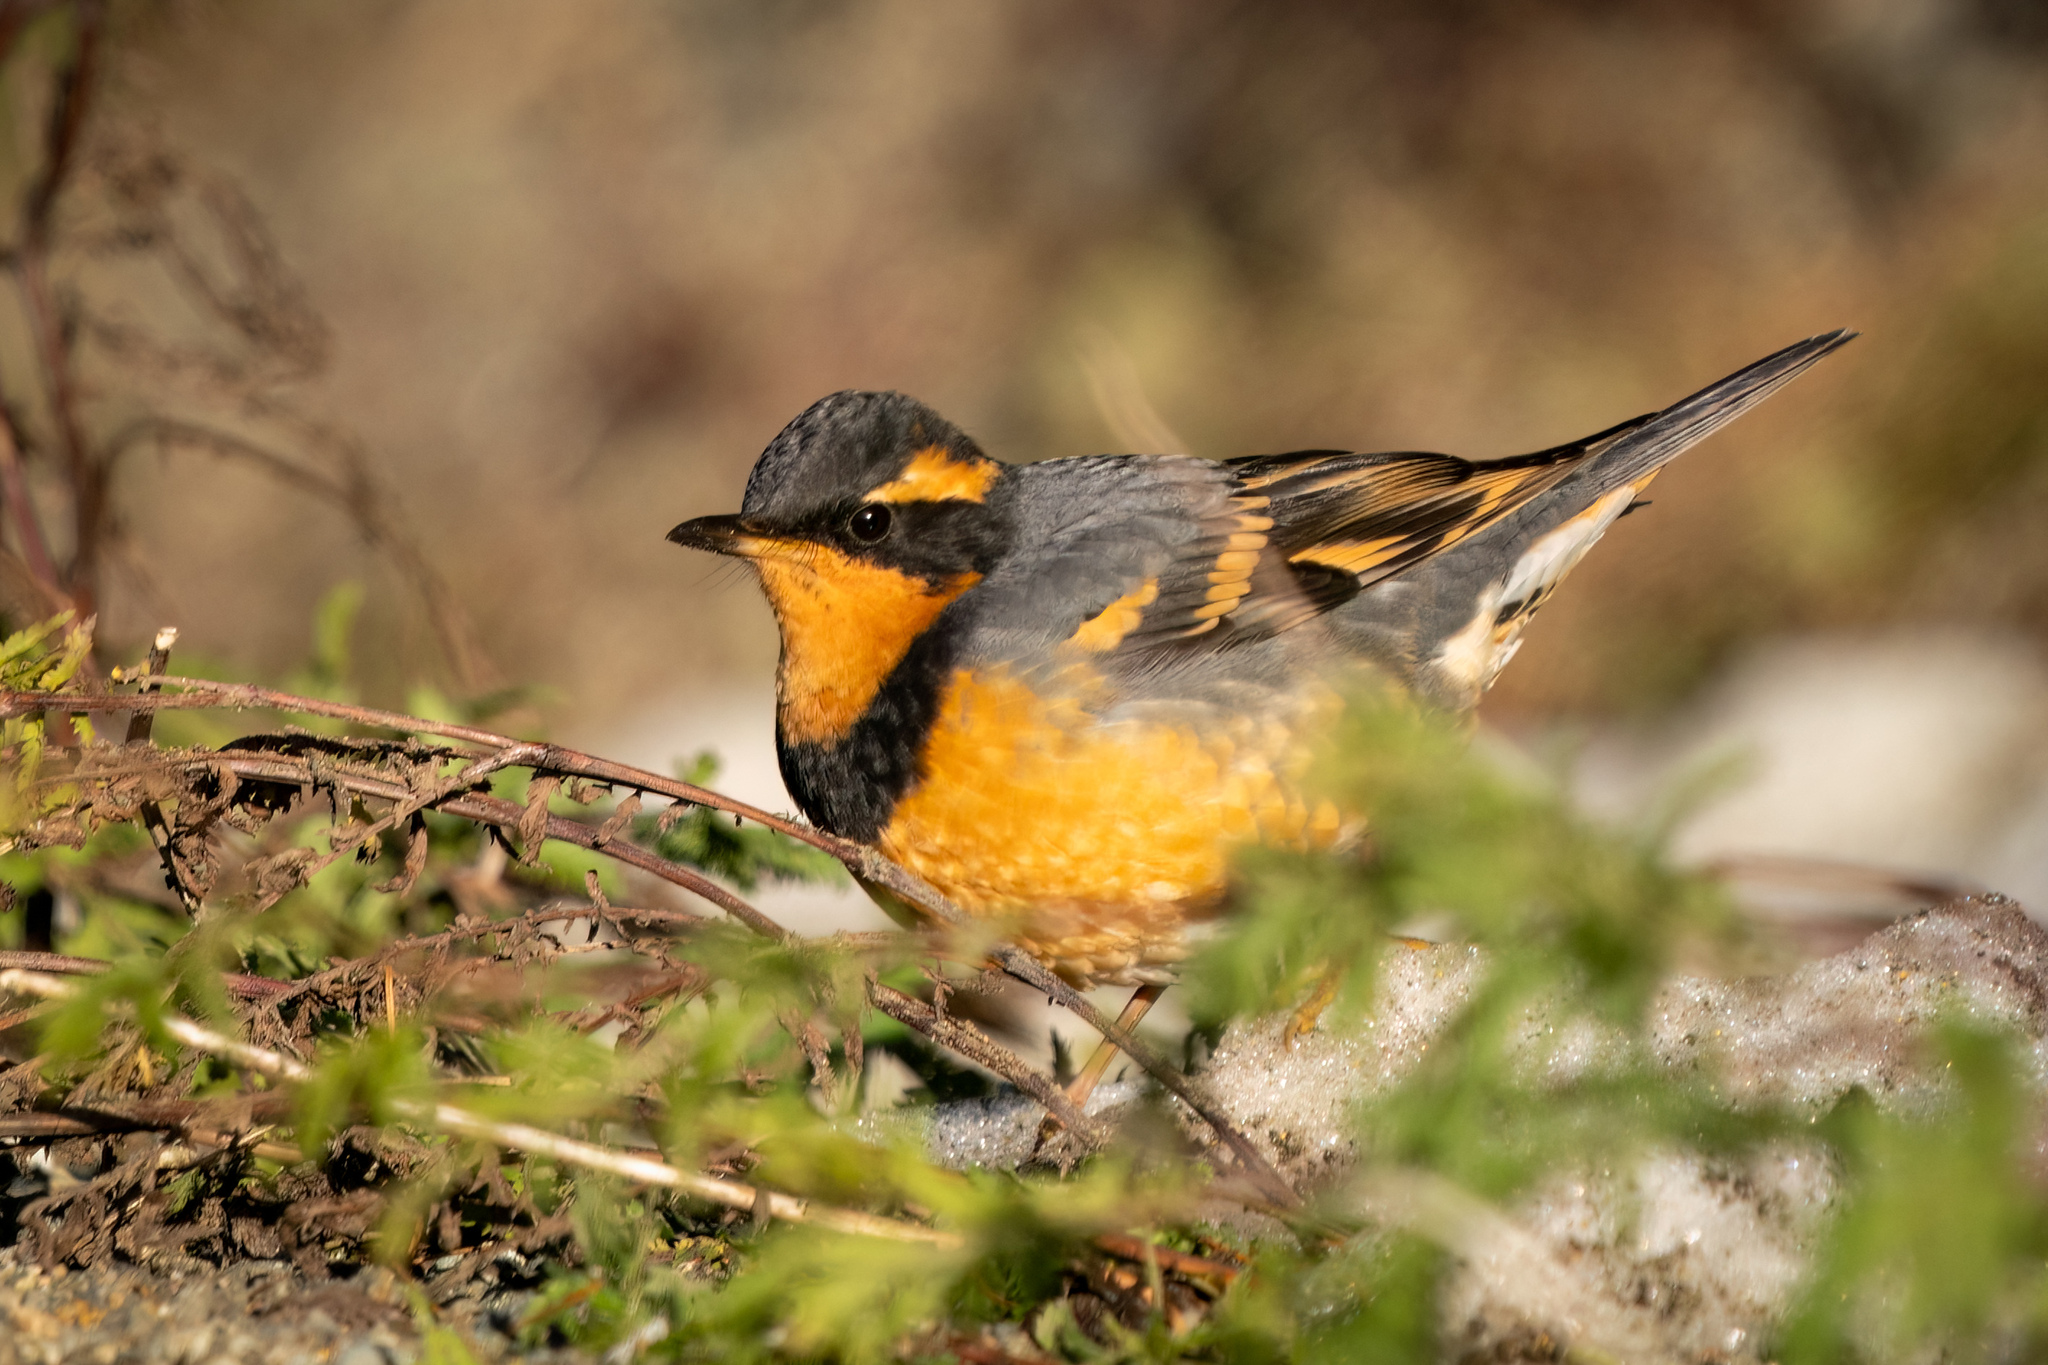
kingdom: Animalia
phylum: Chordata
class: Aves
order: Passeriformes
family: Turdidae
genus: Ixoreus
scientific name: Ixoreus naevius
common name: Varied thrush
